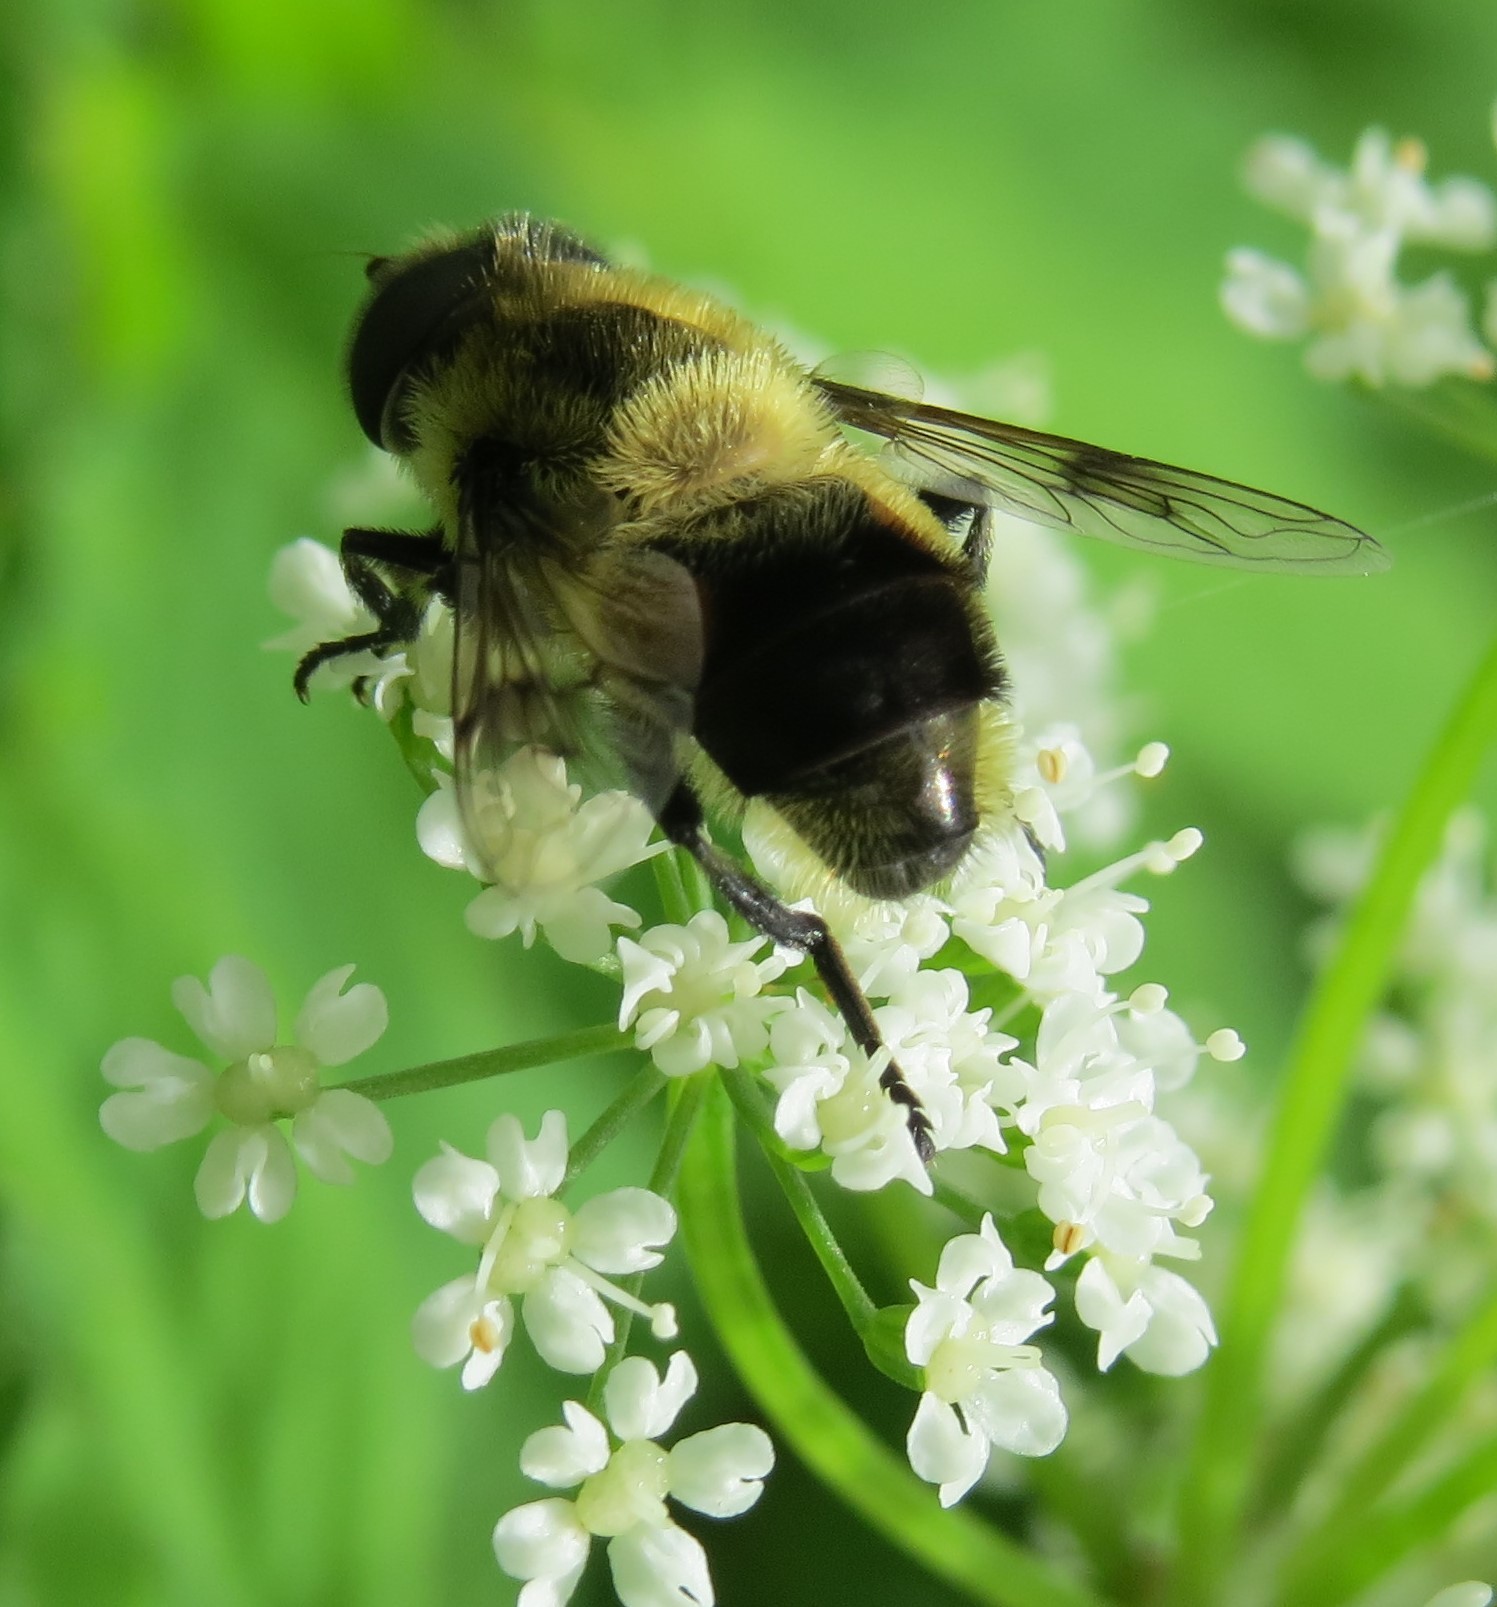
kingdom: Animalia
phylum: Arthropoda
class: Insecta
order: Diptera
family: Syrphidae
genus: Eristalis
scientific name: Eristalis anthophorina
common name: Orange-spotted drone fly
